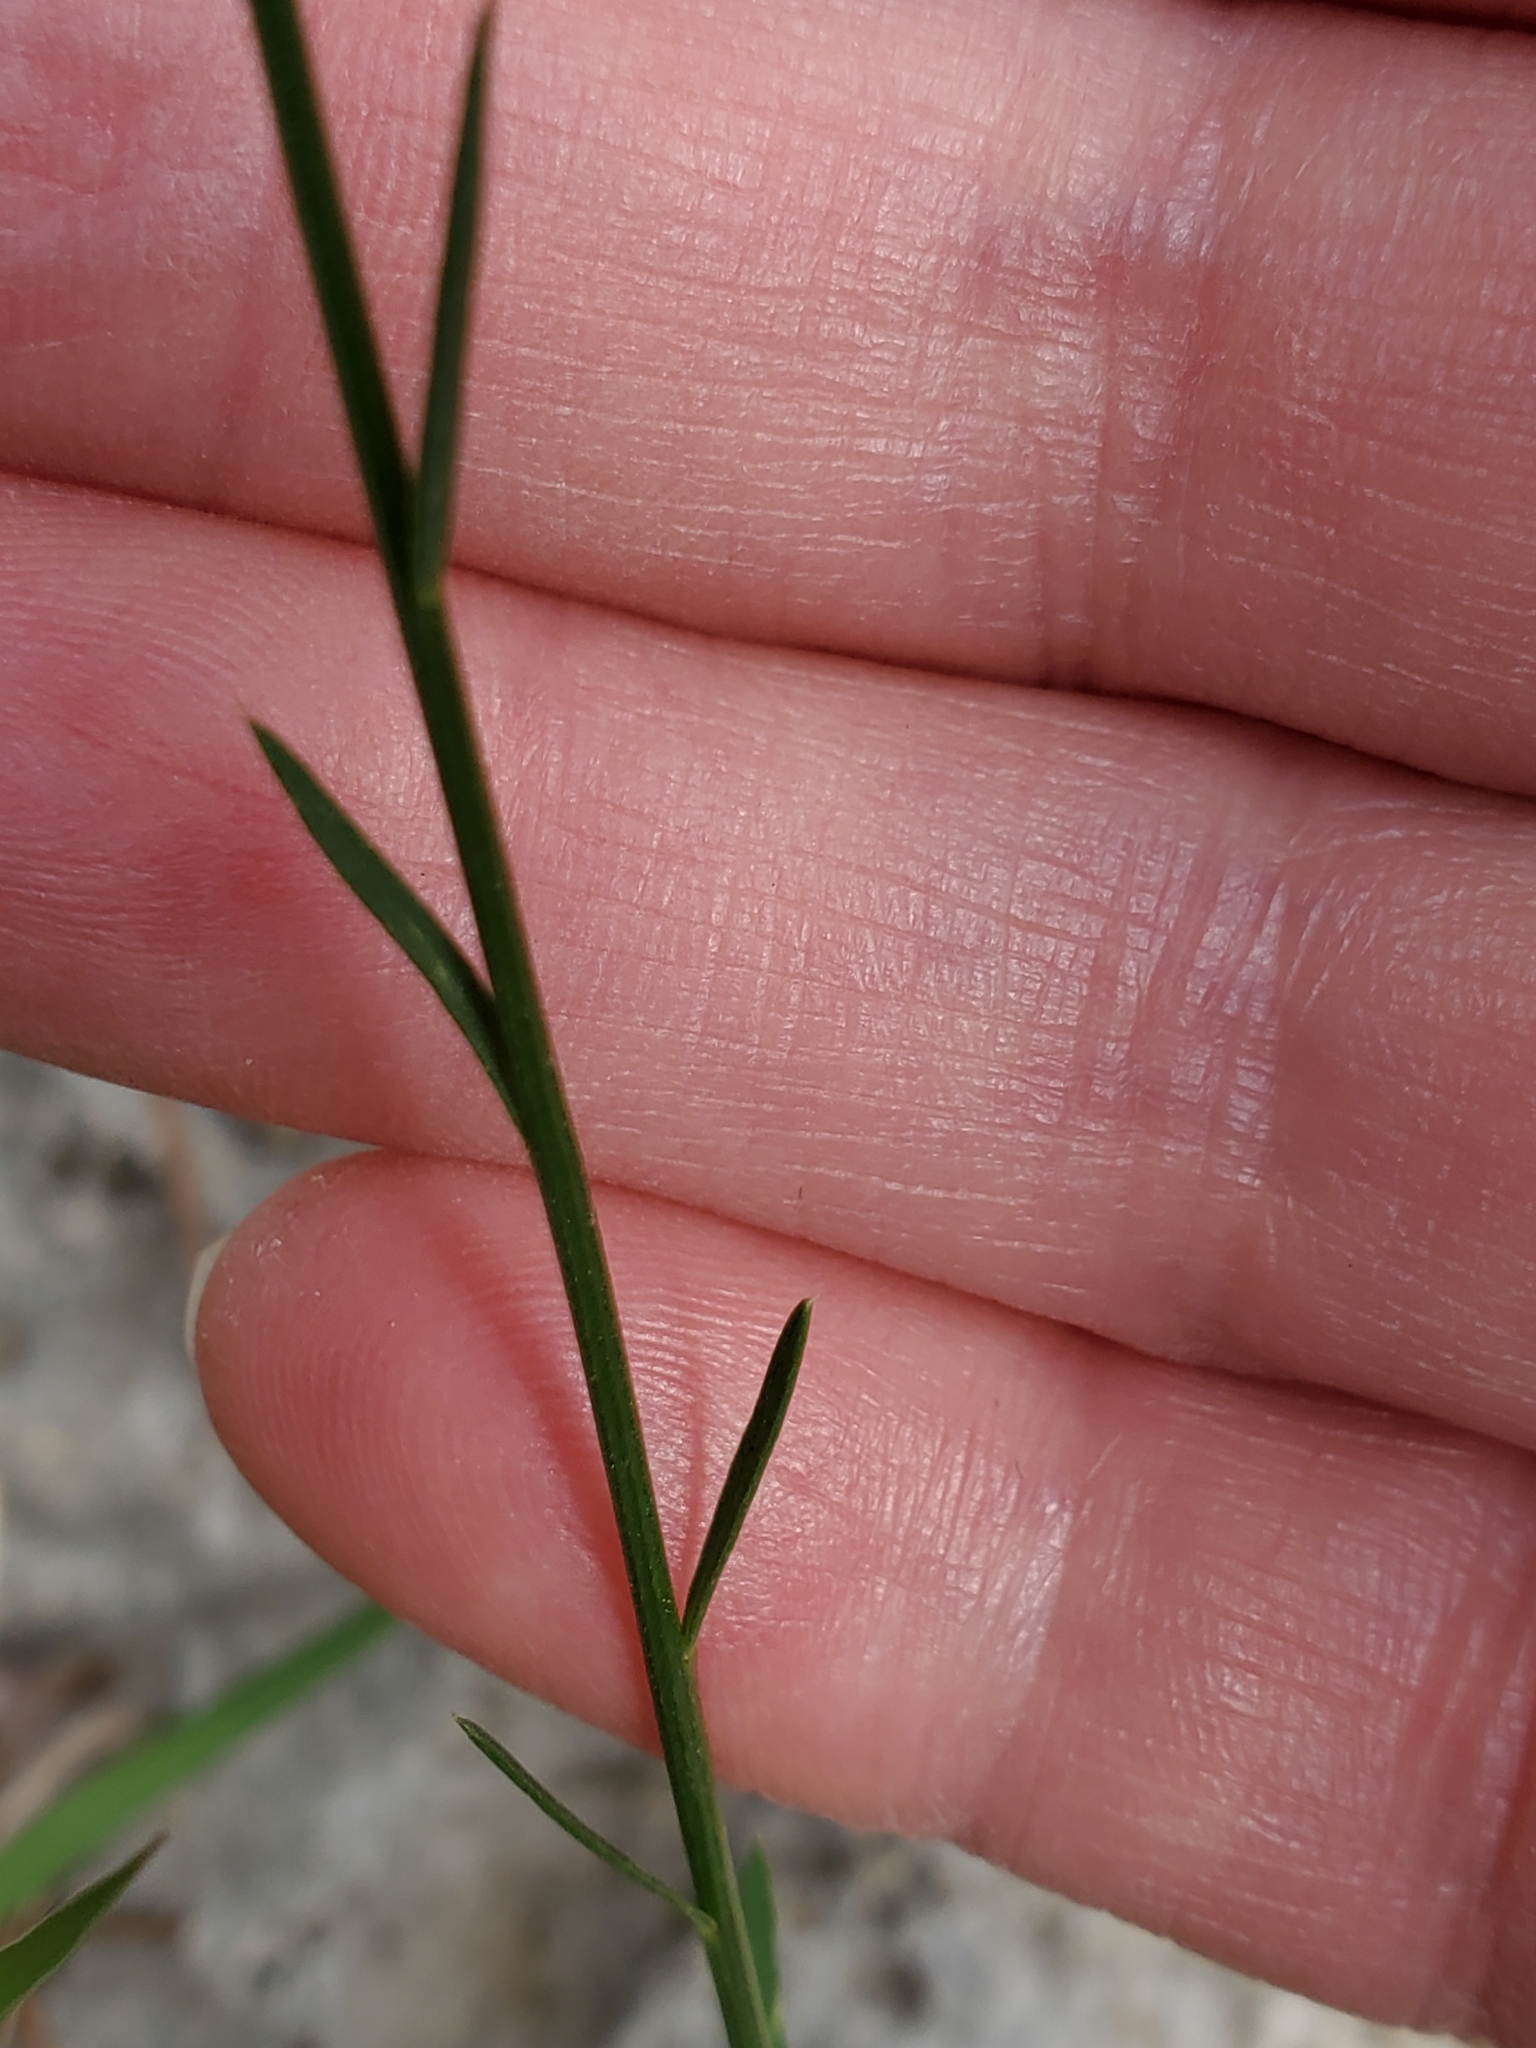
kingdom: Plantae
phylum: Tracheophyta
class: Magnoliopsida
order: Malpighiales
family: Linaceae
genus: Linum
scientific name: Linum rupestre
